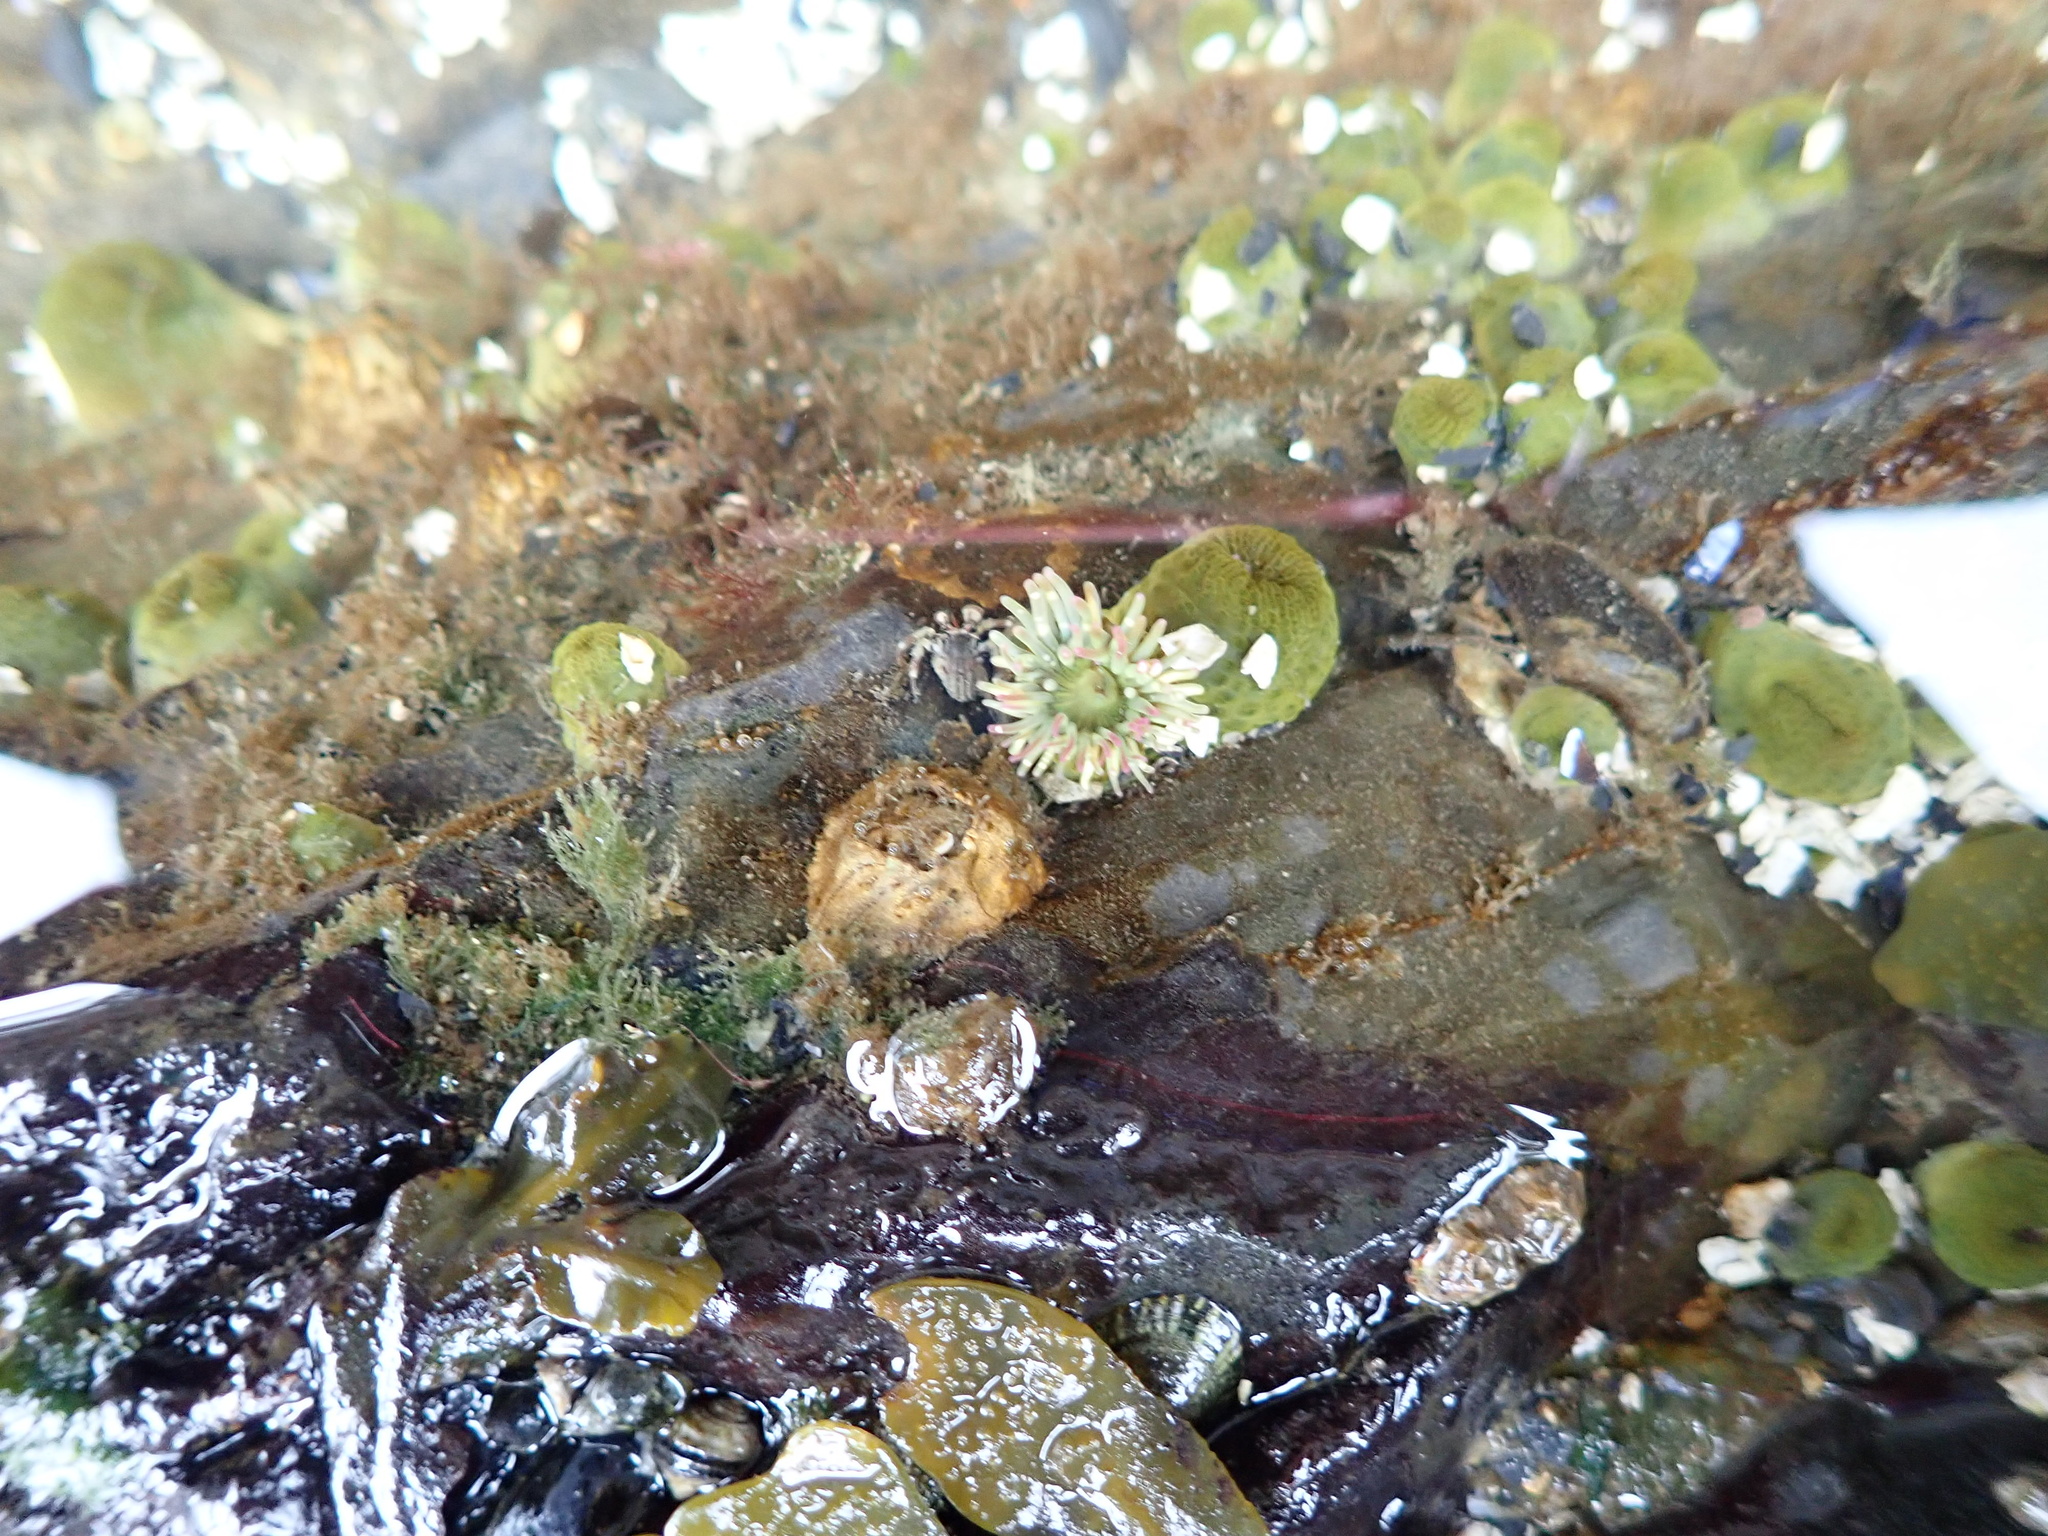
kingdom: Animalia
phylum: Cnidaria
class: Anthozoa
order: Actiniaria
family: Actiniidae
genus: Anthopleura
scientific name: Anthopleura elegantissima
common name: Clonal anemone
